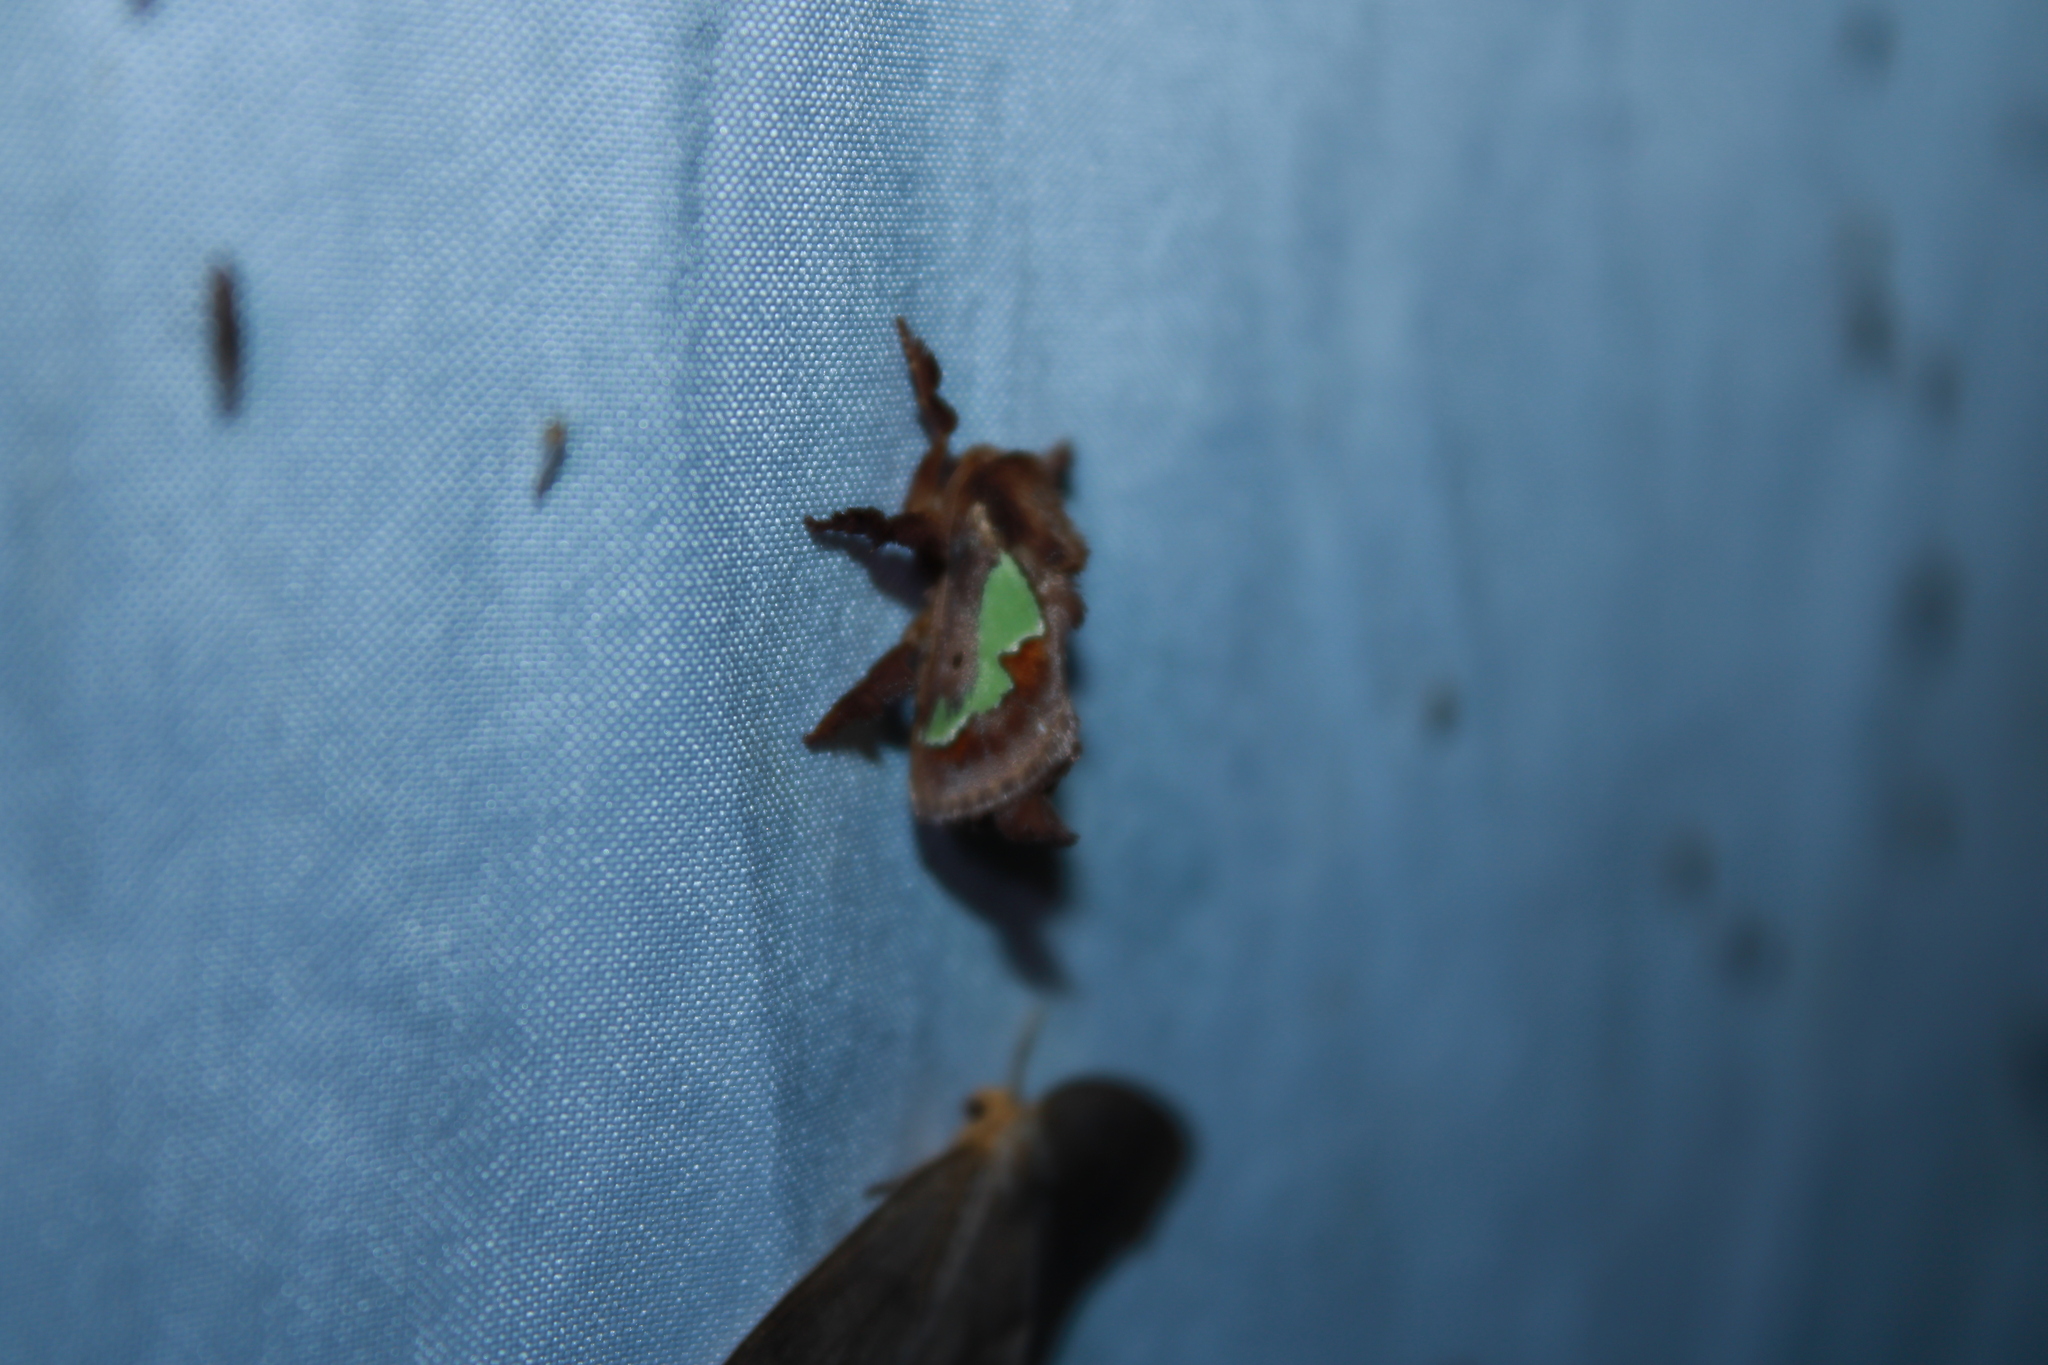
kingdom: Animalia
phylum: Arthropoda
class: Insecta
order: Lepidoptera
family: Limacodidae
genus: Euclea
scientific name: Euclea delphinii
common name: Spiny oak-slug moth
